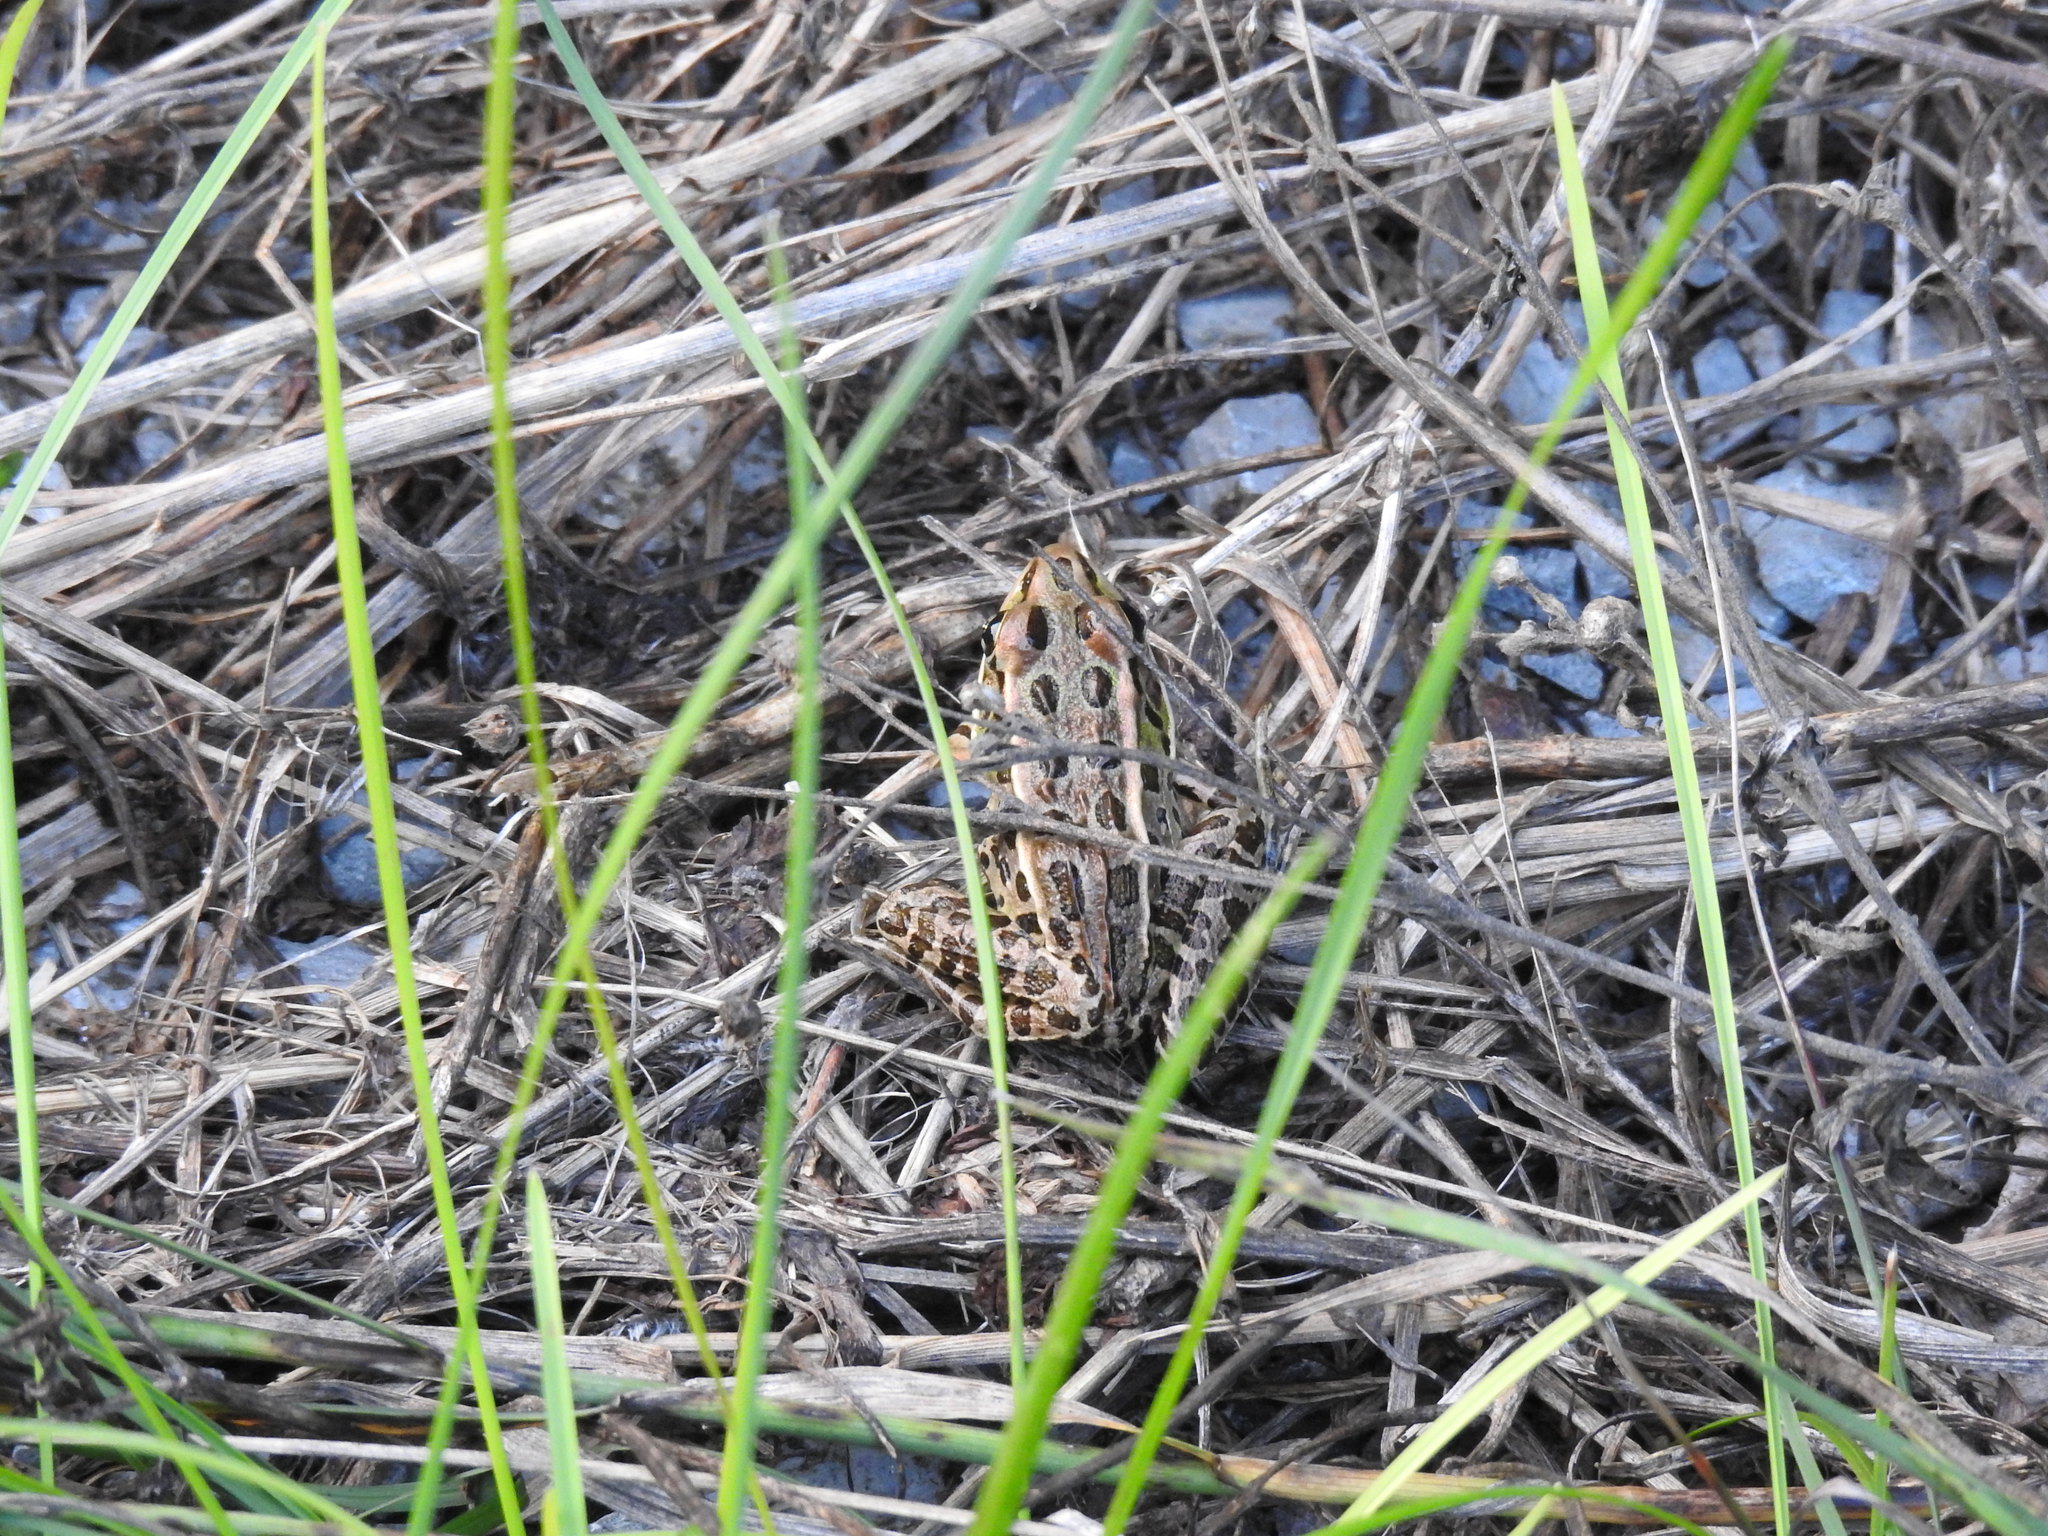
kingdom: Animalia
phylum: Chordata
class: Amphibia
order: Anura
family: Ranidae
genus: Lithobates
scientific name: Lithobates pipiens
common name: Northern leopard frog
